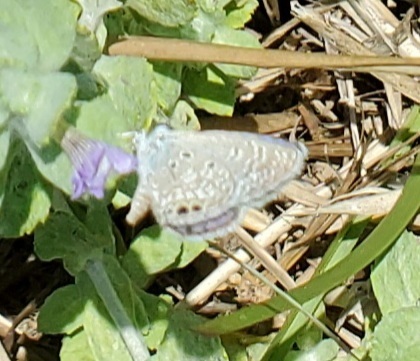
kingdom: Animalia
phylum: Arthropoda
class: Insecta
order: Lepidoptera
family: Lycaenidae
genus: Hemiargus
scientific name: Hemiargus ceraunus
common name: Ceraunus blue
